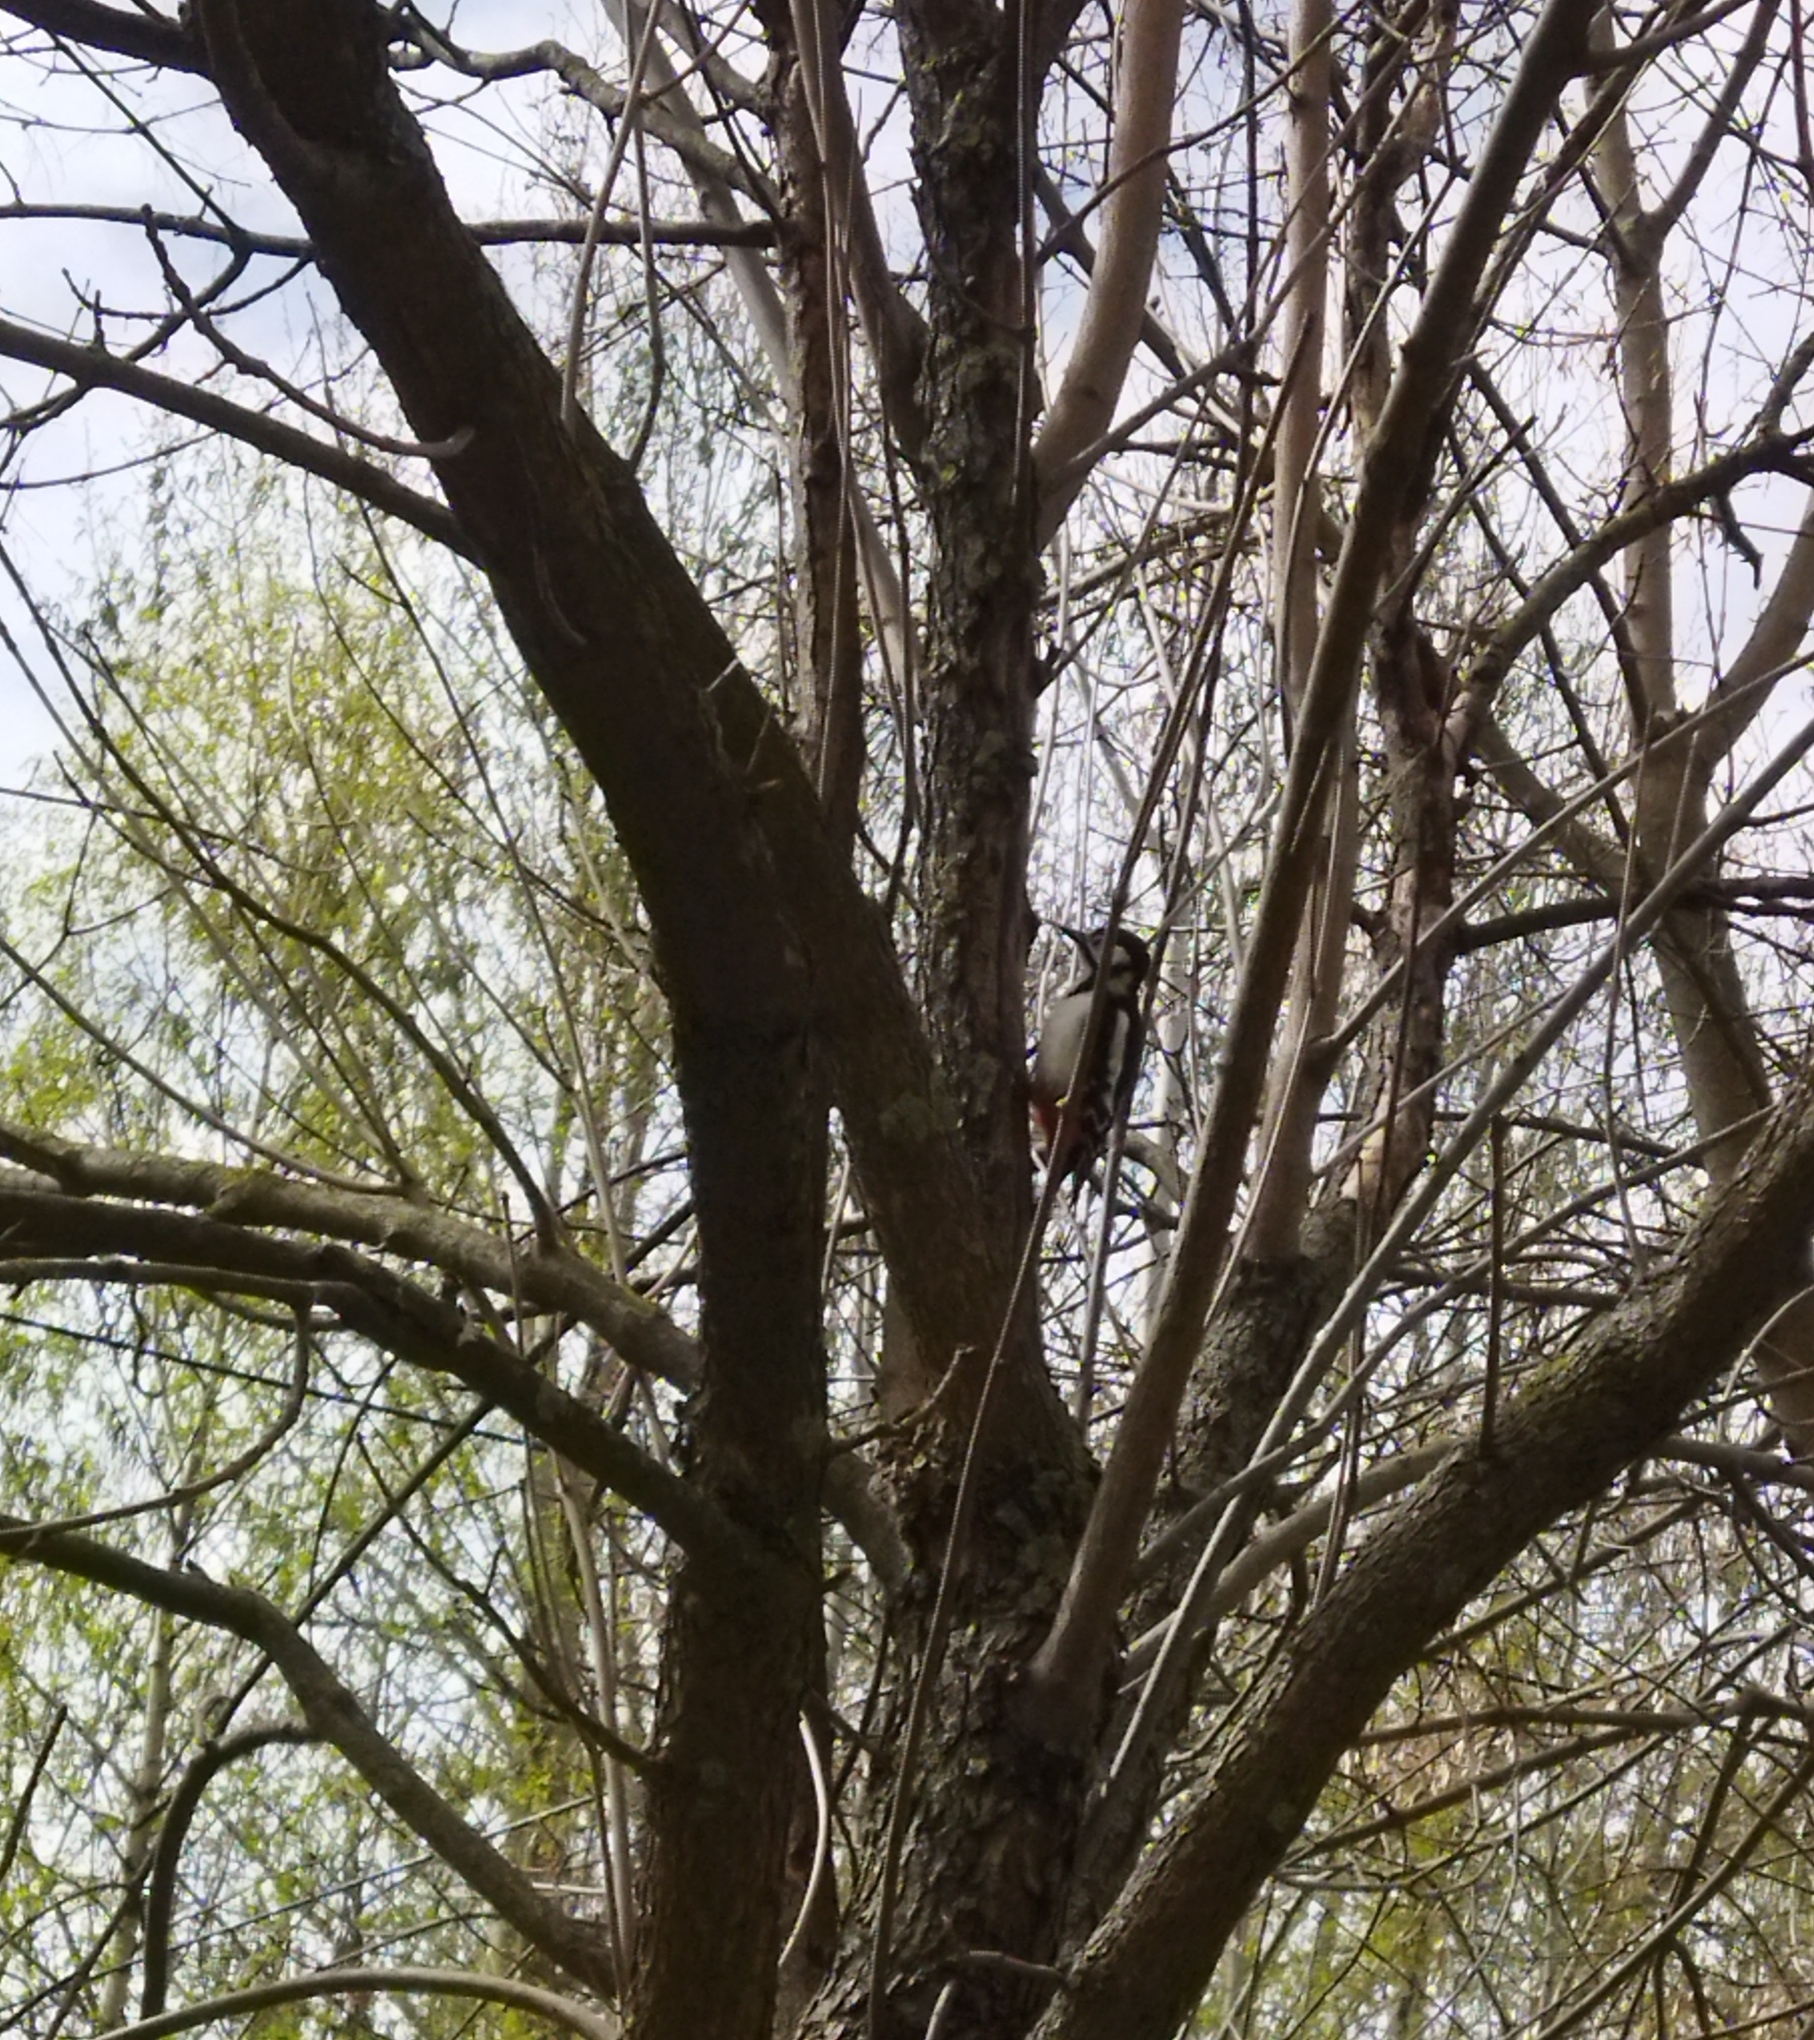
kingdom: Animalia
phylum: Chordata
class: Aves
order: Piciformes
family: Picidae
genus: Dendrocopos
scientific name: Dendrocopos major
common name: Great spotted woodpecker
